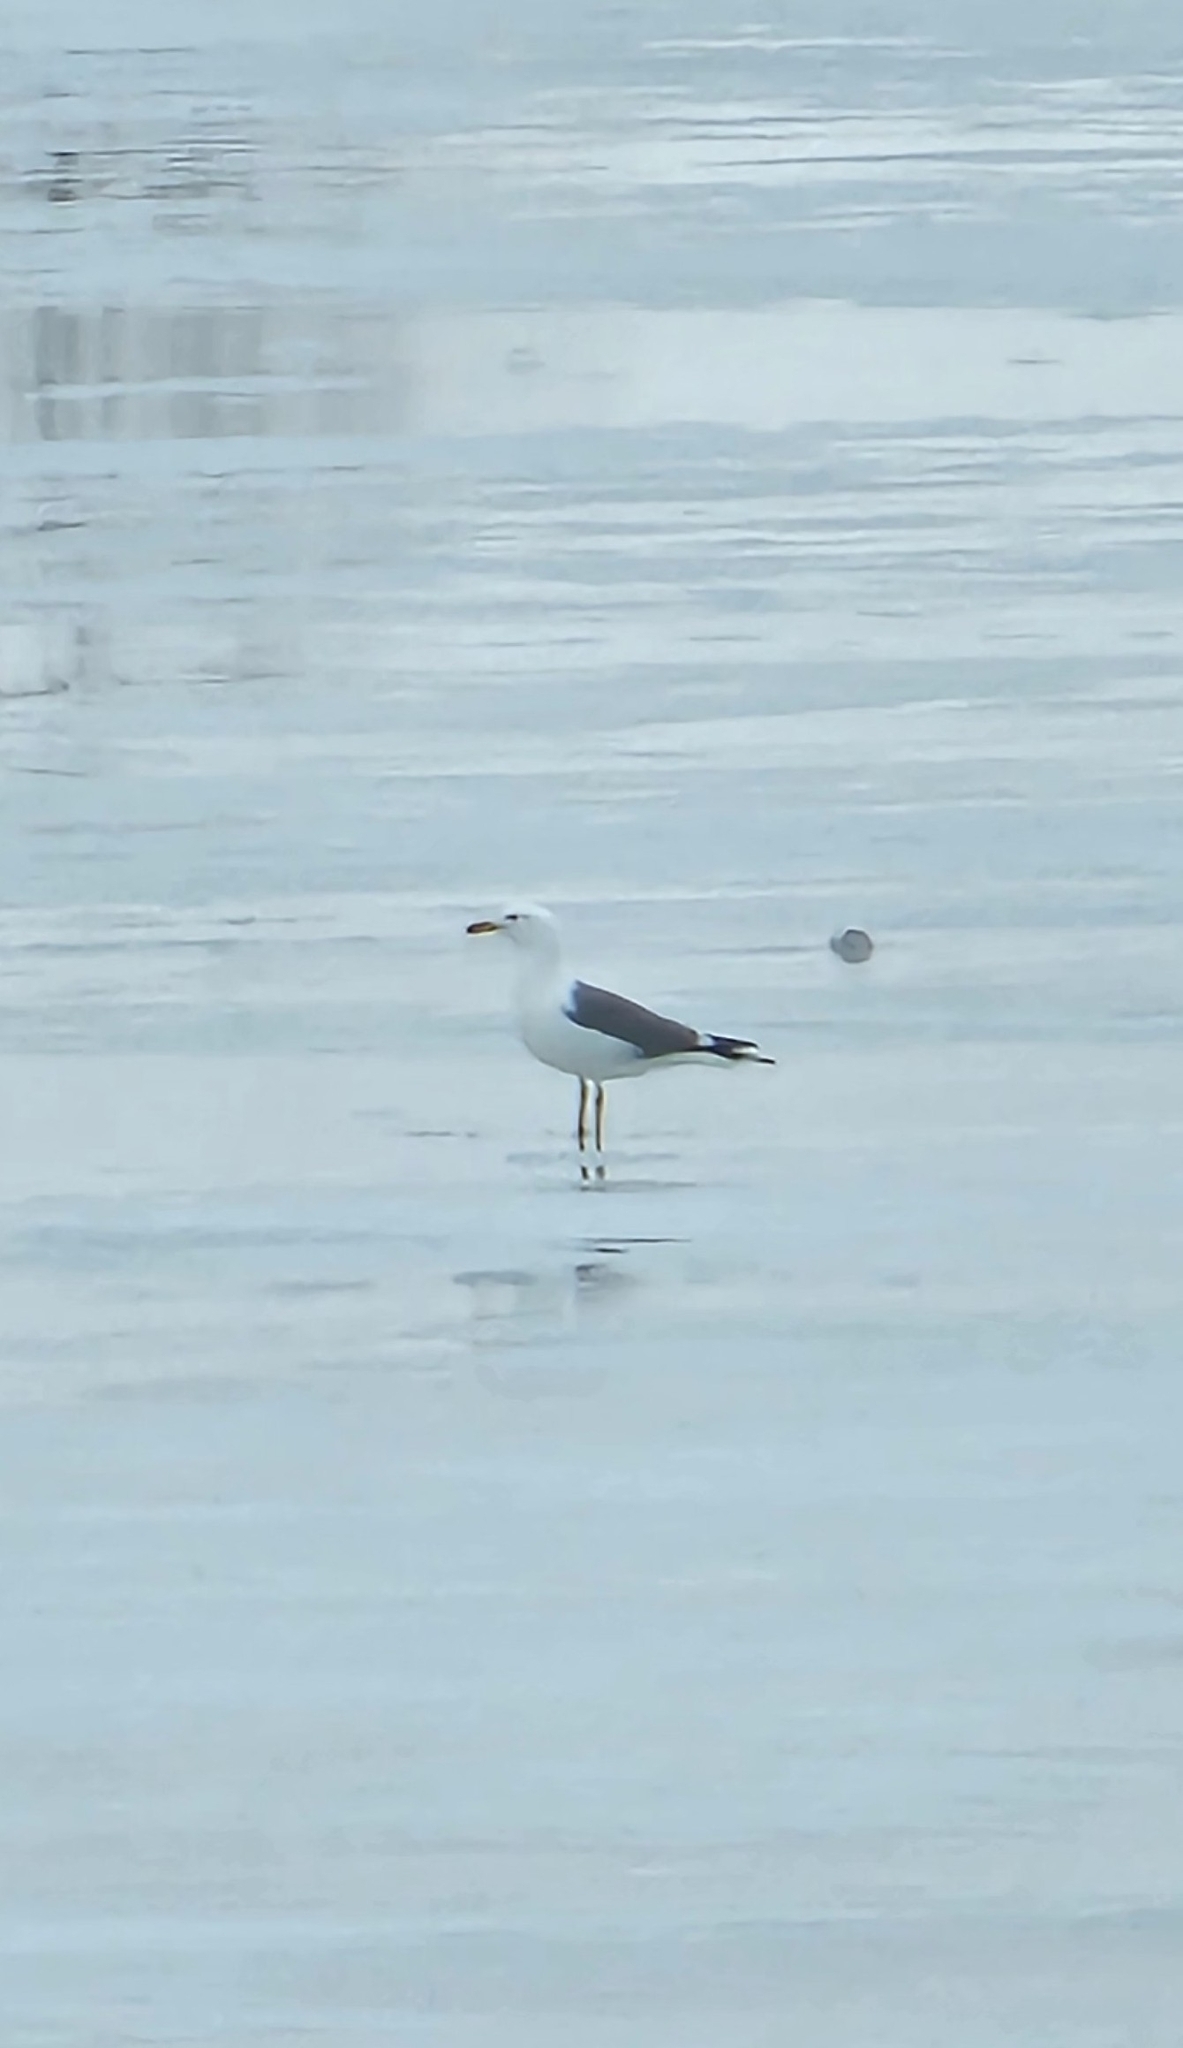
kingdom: Animalia
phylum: Chordata
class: Aves
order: Charadriiformes
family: Laridae
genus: Larus
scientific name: Larus fuscus
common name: Lesser black-backed gull
